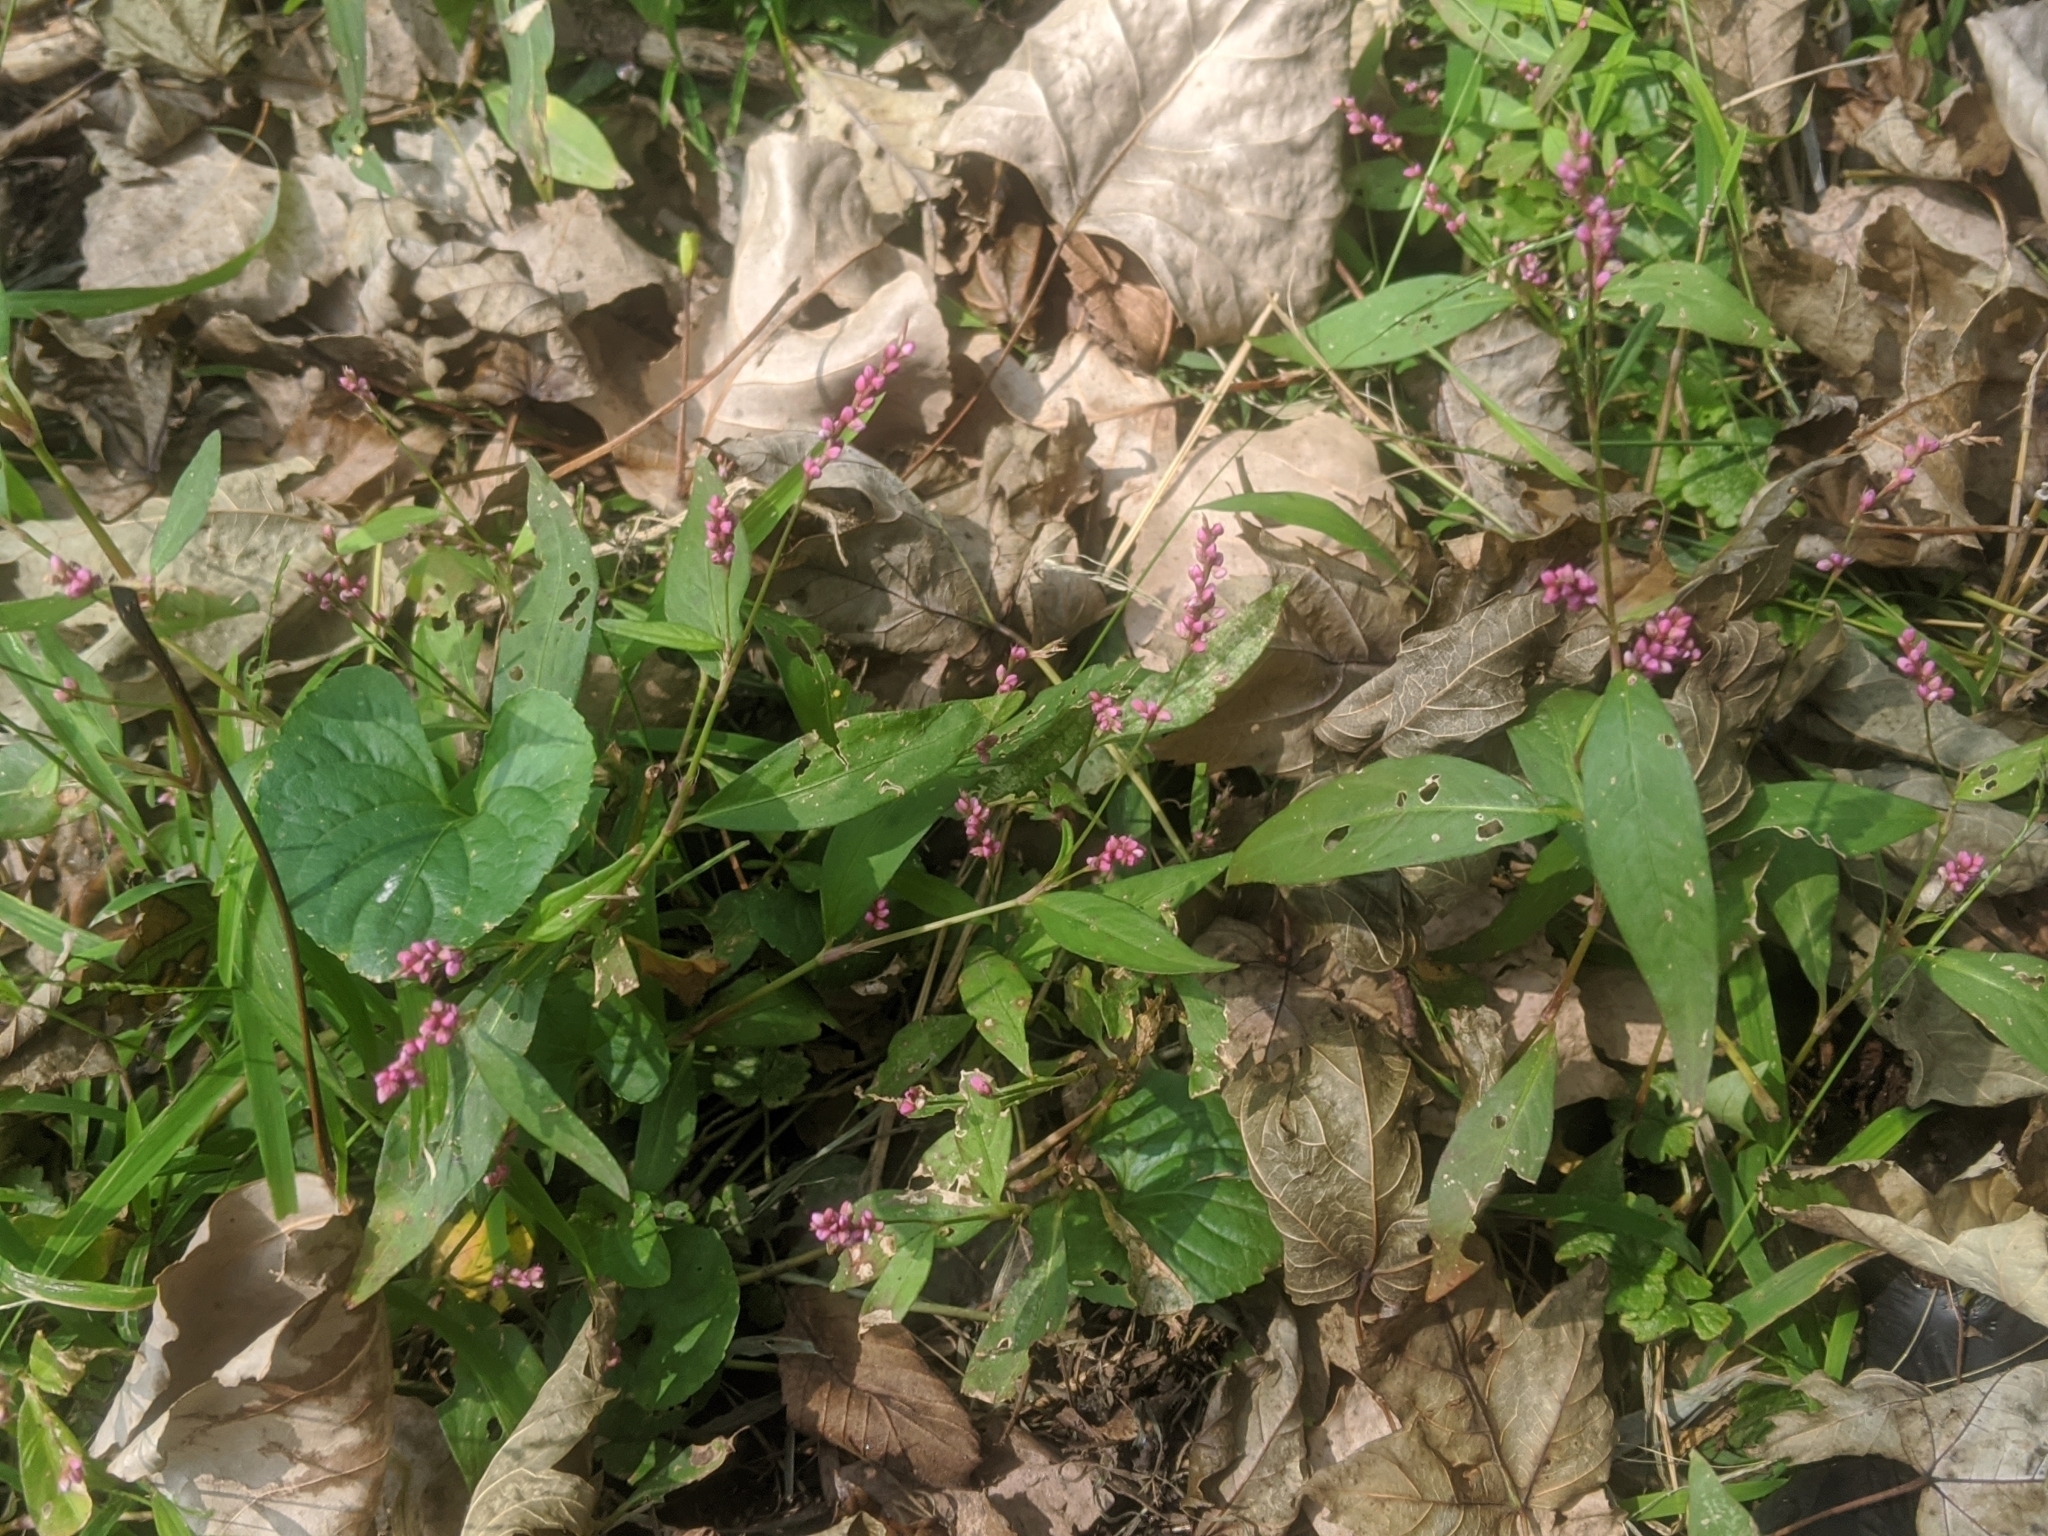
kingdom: Plantae
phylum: Tracheophyta
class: Magnoliopsida
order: Caryophyllales
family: Polygonaceae
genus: Persicaria
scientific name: Persicaria longiseta
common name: Bristly lady's-thumb
